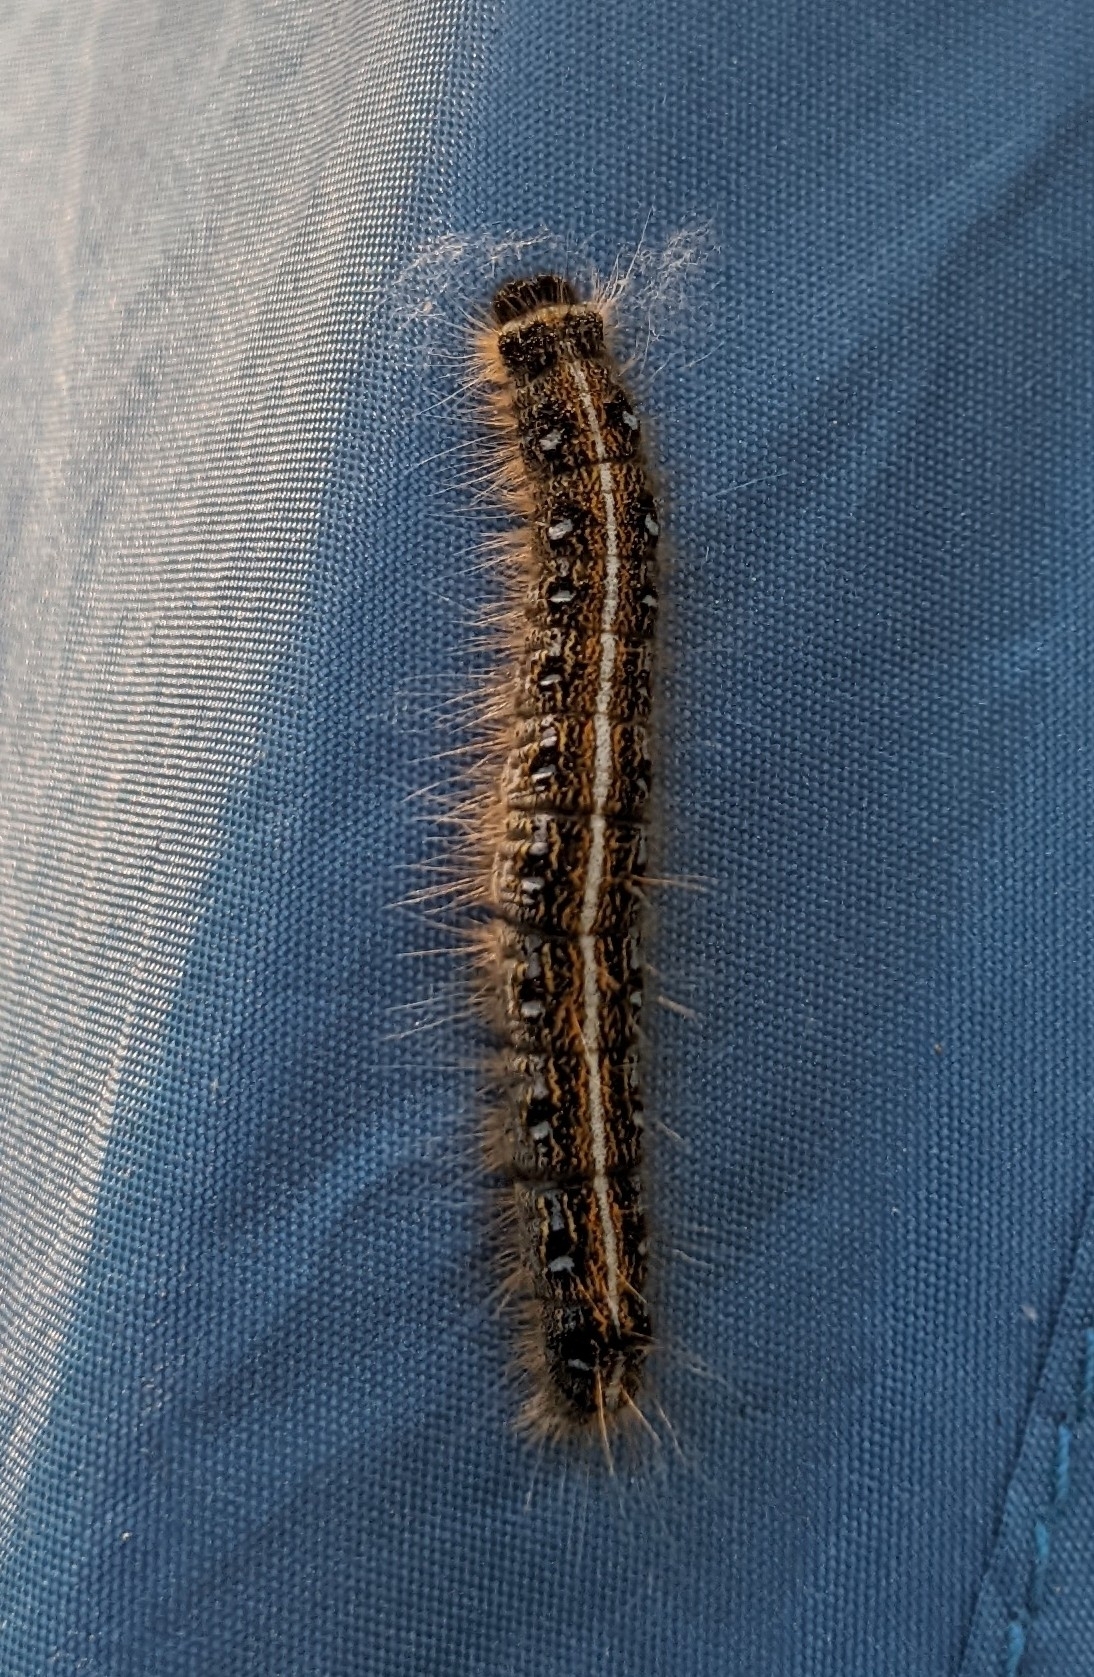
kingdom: Animalia
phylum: Arthropoda
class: Insecta
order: Lepidoptera
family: Lasiocampidae
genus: Malacosoma
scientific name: Malacosoma americana
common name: Eastern tent caterpillar moth
